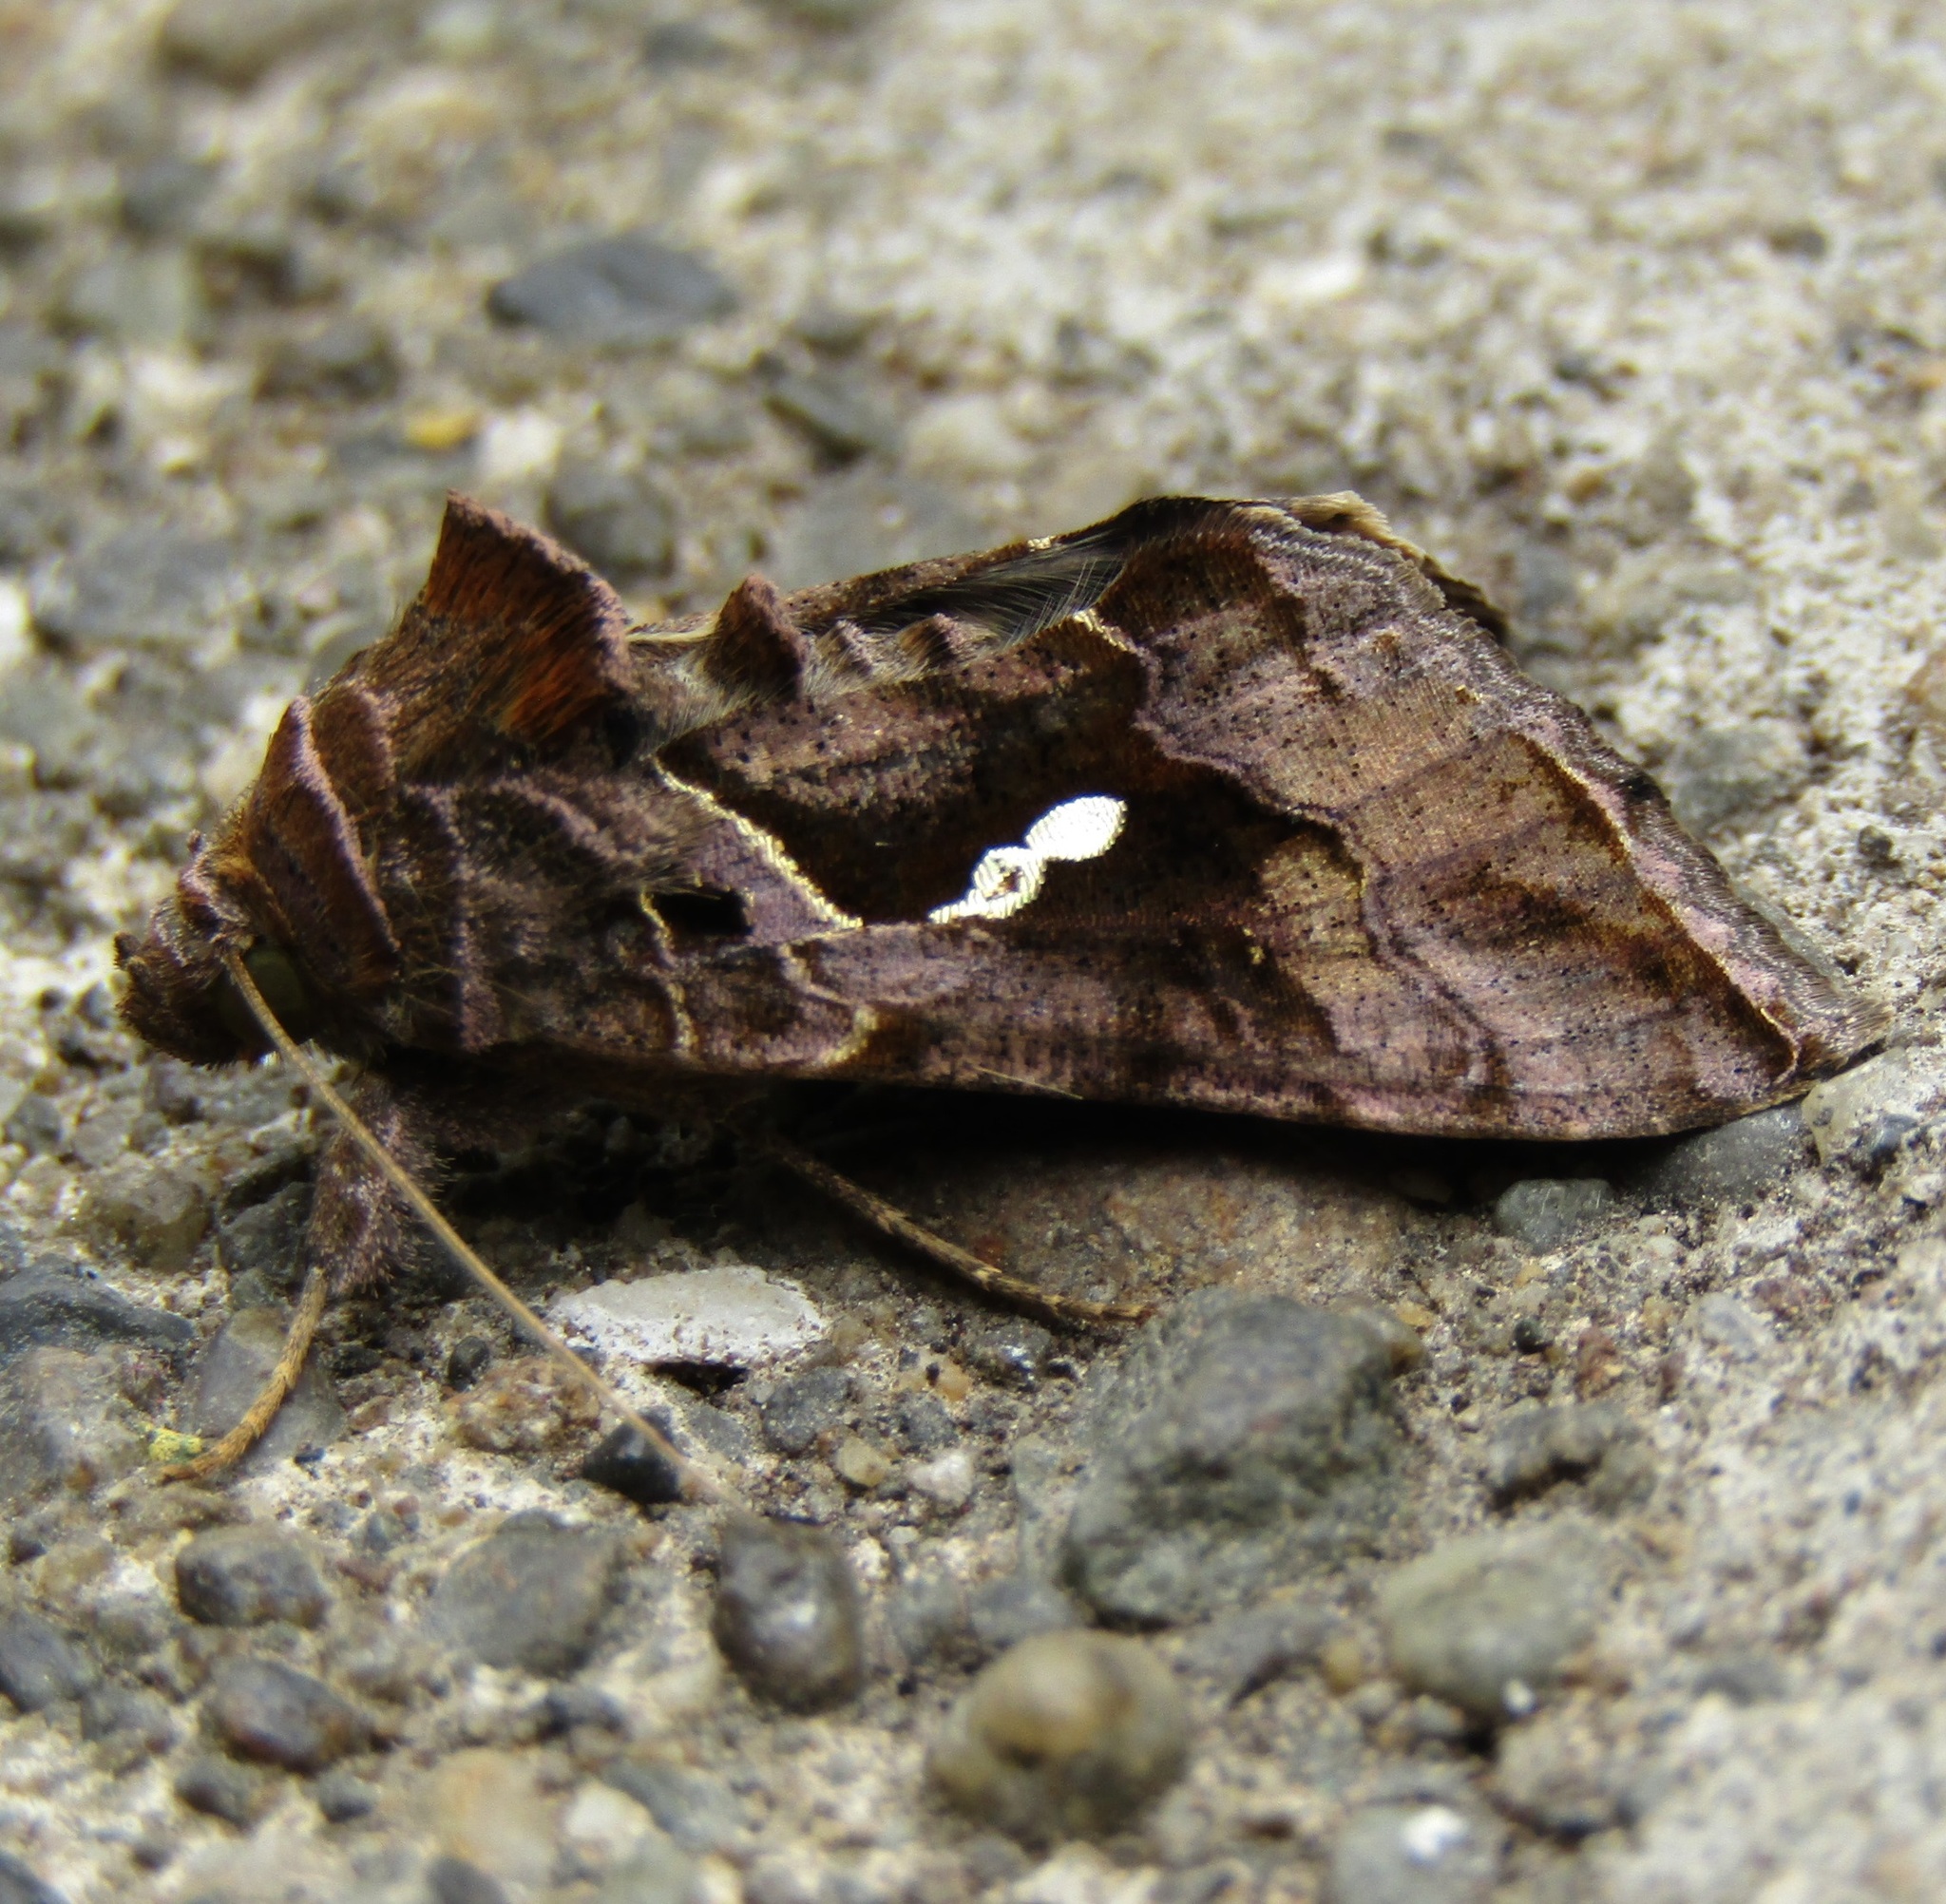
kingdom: Animalia
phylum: Arthropoda
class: Insecta
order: Lepidoptera
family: Noctuidae
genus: Chrysodeixis
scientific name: Chrysodeixis eriosoma
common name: Green garden looper
